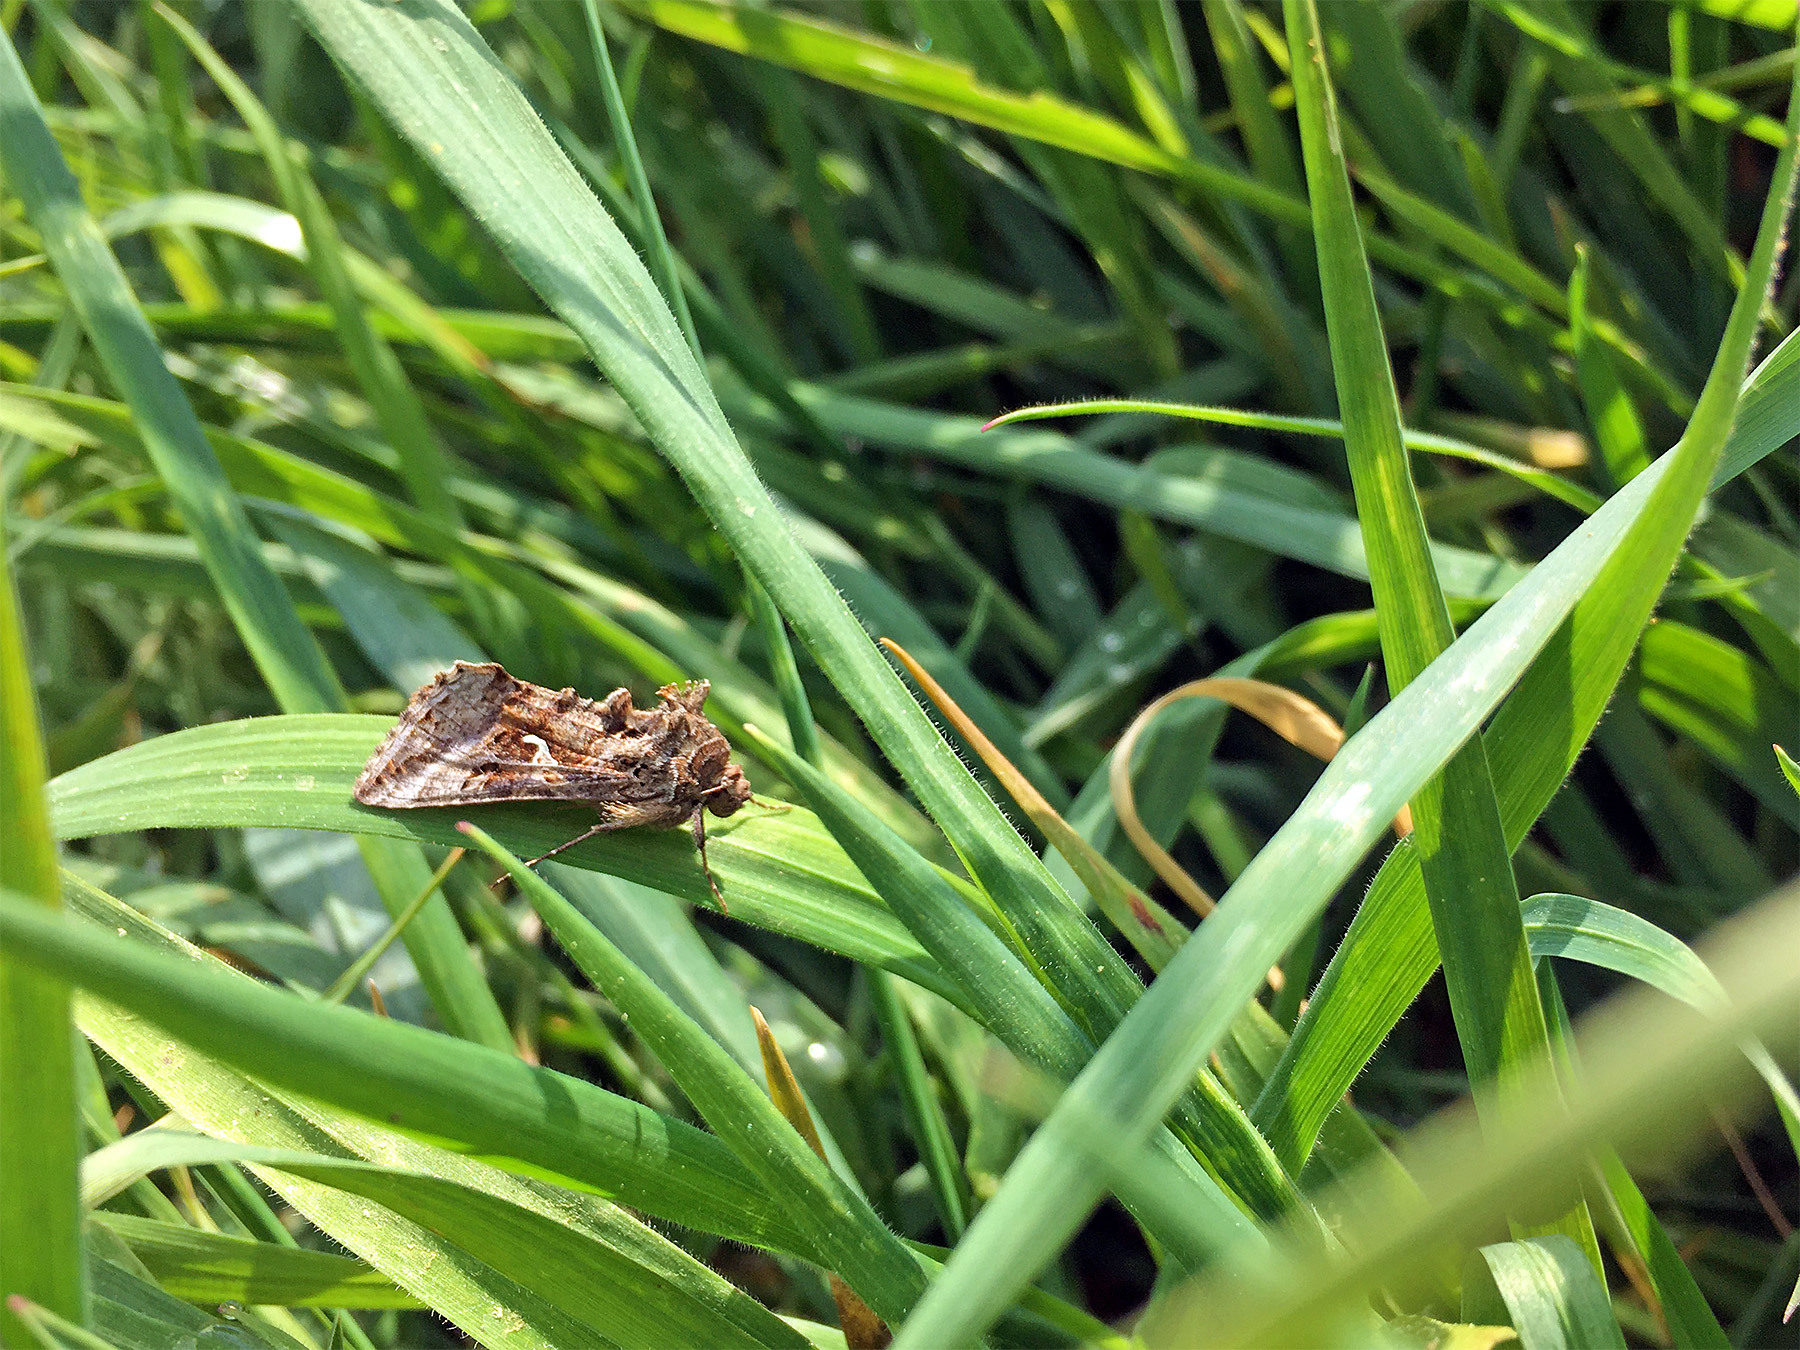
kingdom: Animalia
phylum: Arthropoda
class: Insecta
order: Lepidoptera
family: Noctuidae
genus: Autographa
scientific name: Autographa gamma
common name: Silver y
